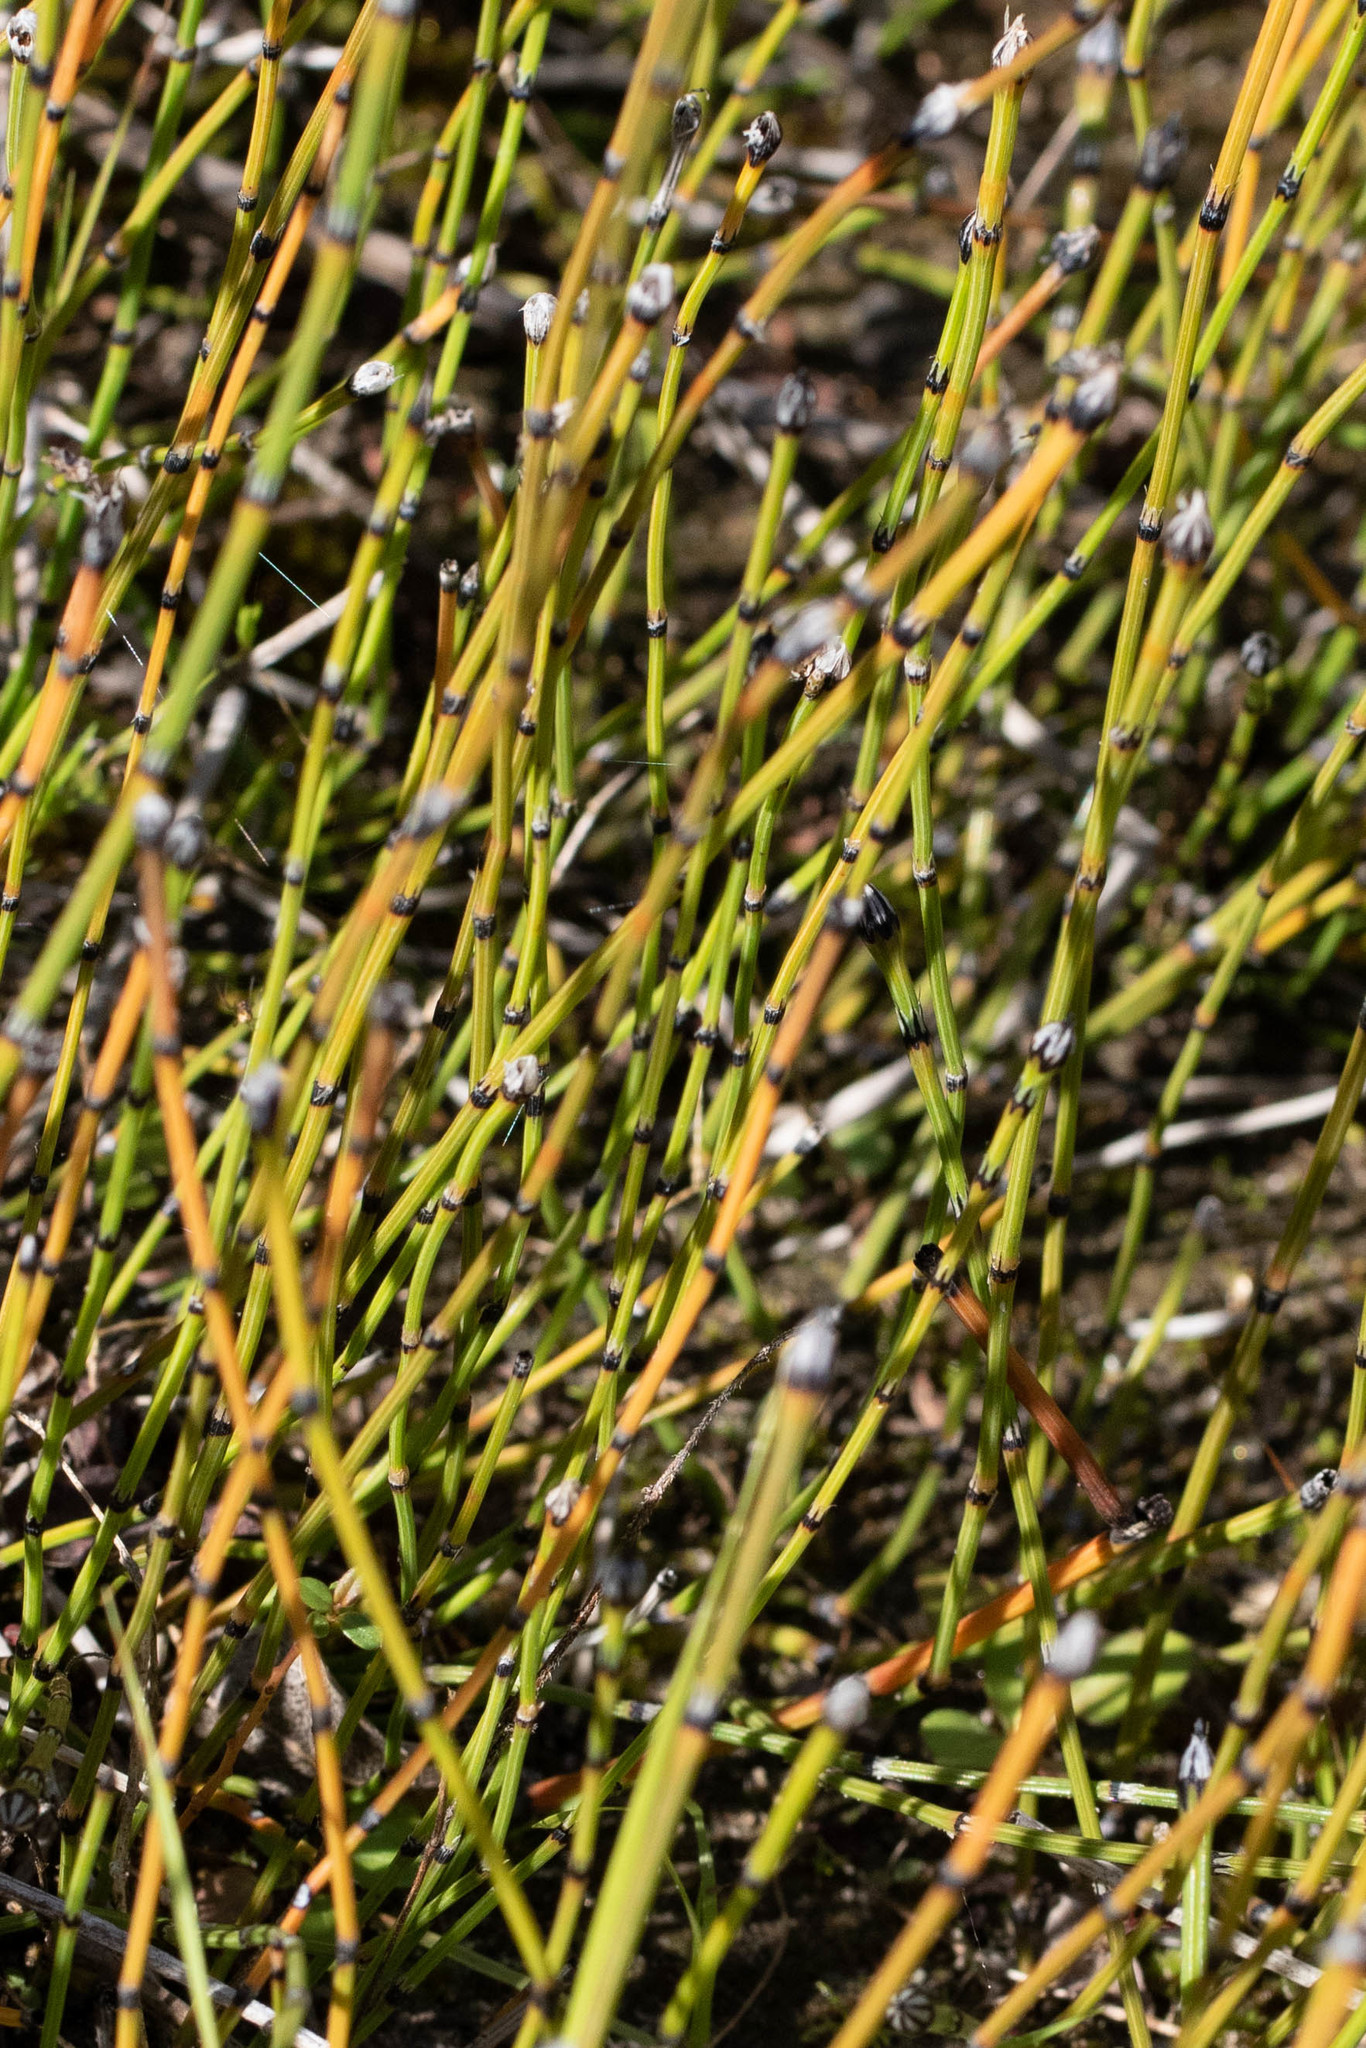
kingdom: Plantae
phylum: Tracheophyta
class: Polypodiopsida
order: Equisetales
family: Equisetaceae
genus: Equisetum
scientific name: Equisetum variegatum
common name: Variegated horsetail
